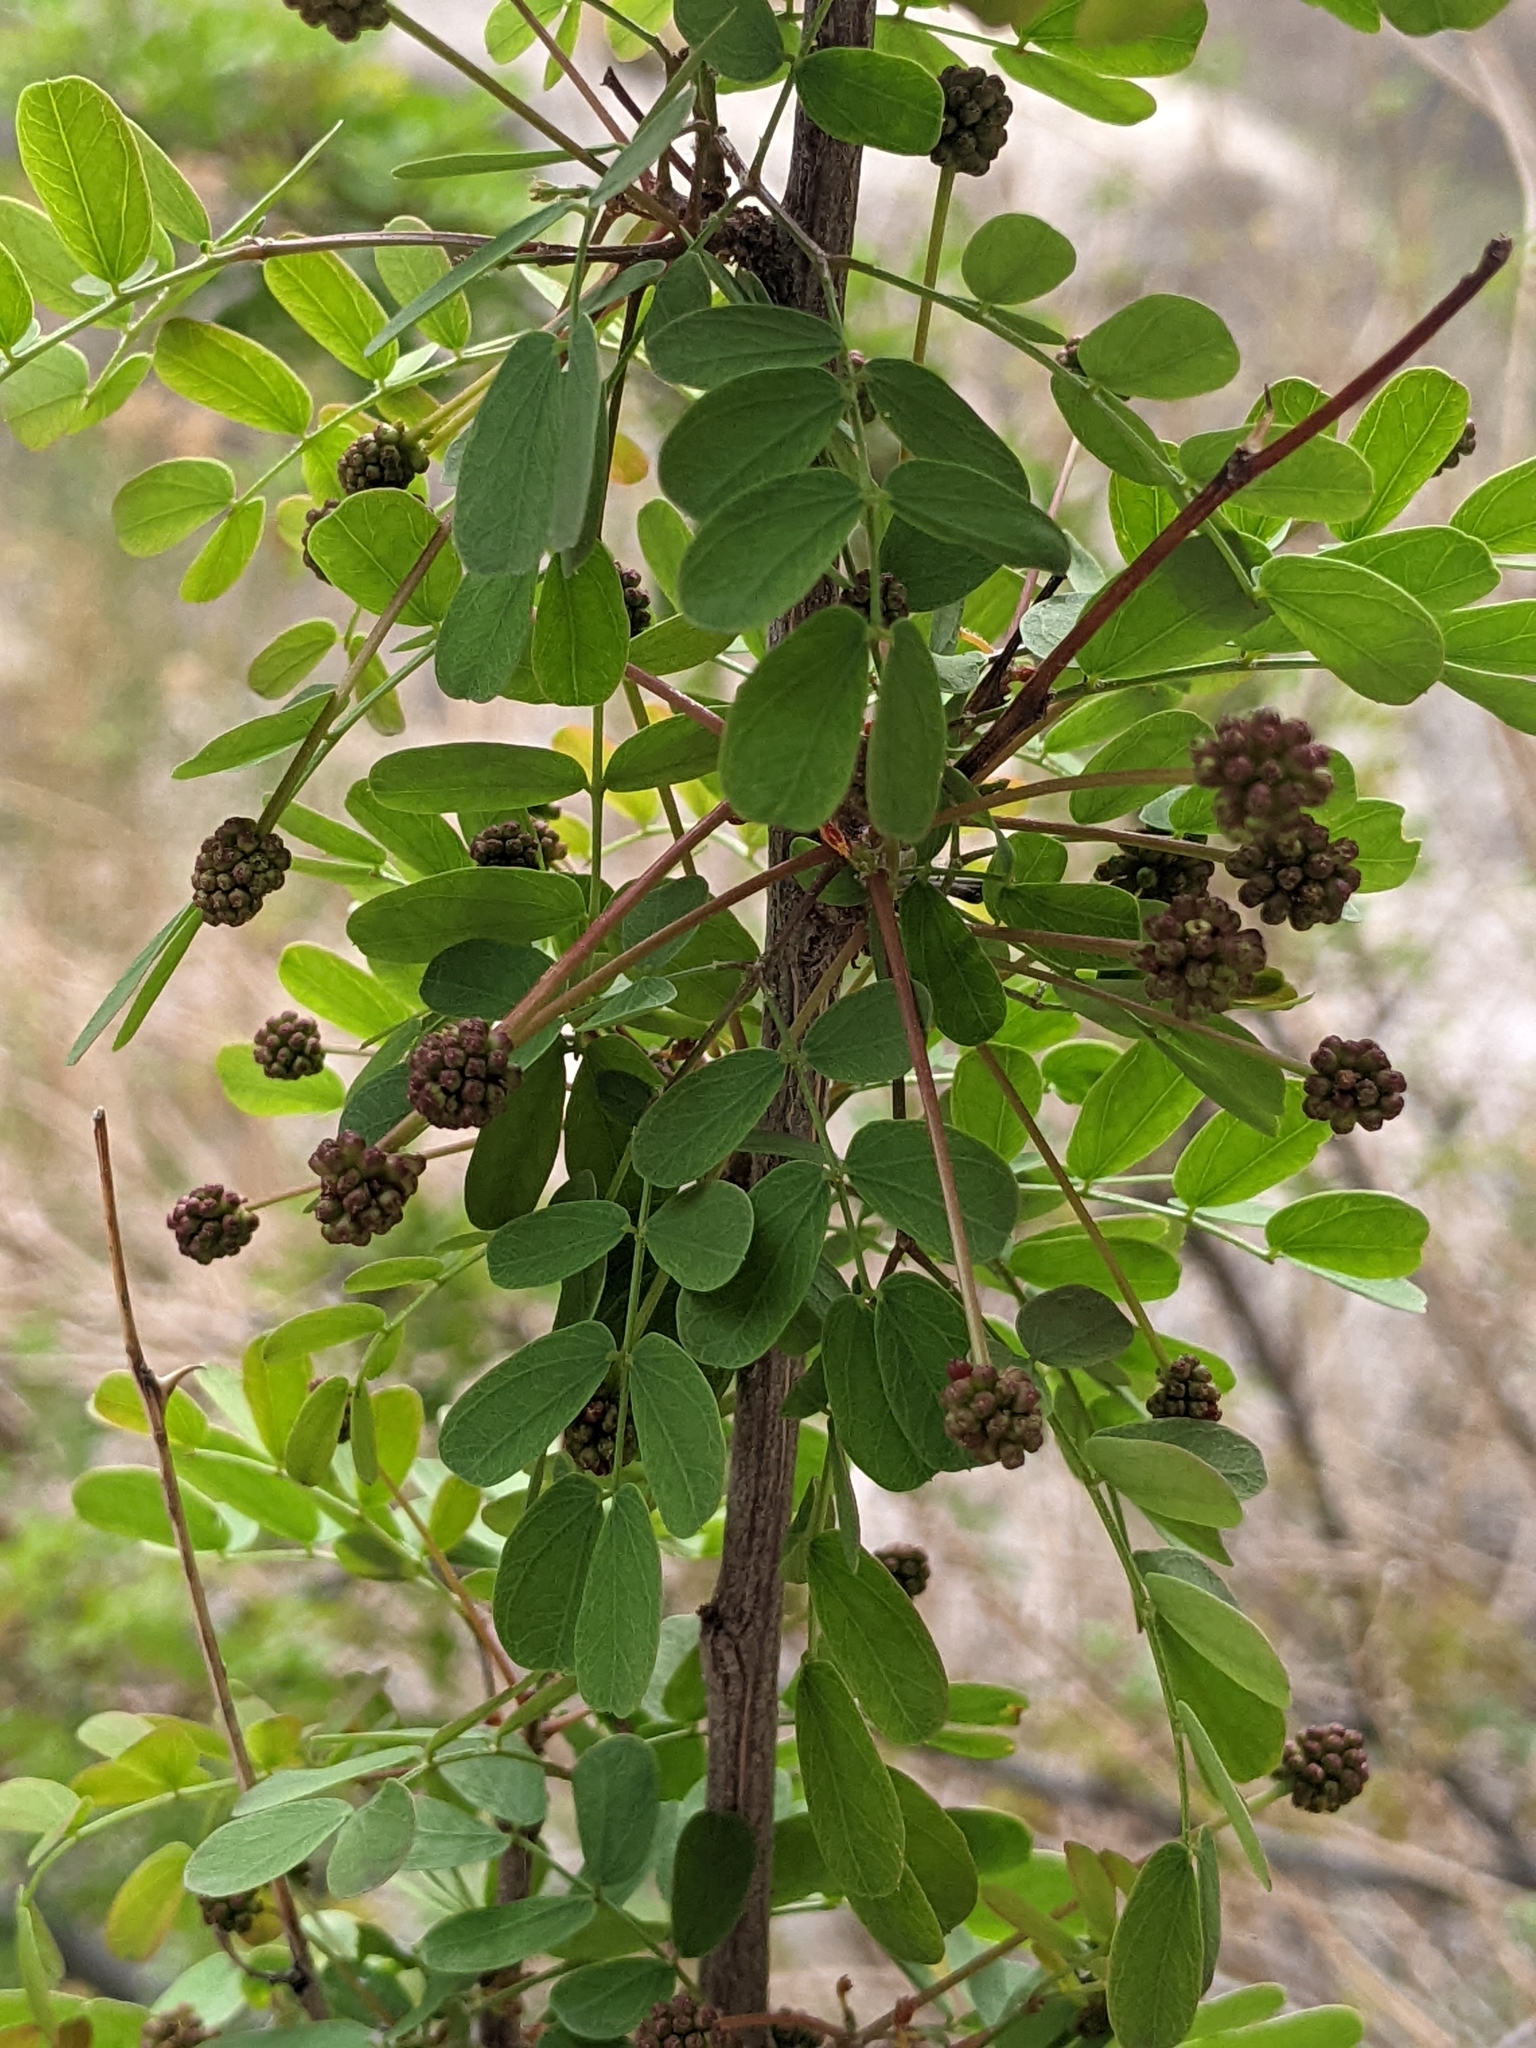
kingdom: Plantae
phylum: Tracheophyta
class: Magnoliopsida
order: Fabales
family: Fabaceae
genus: Leucaena
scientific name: Leucaena retusa
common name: Littleleaf leadtree
